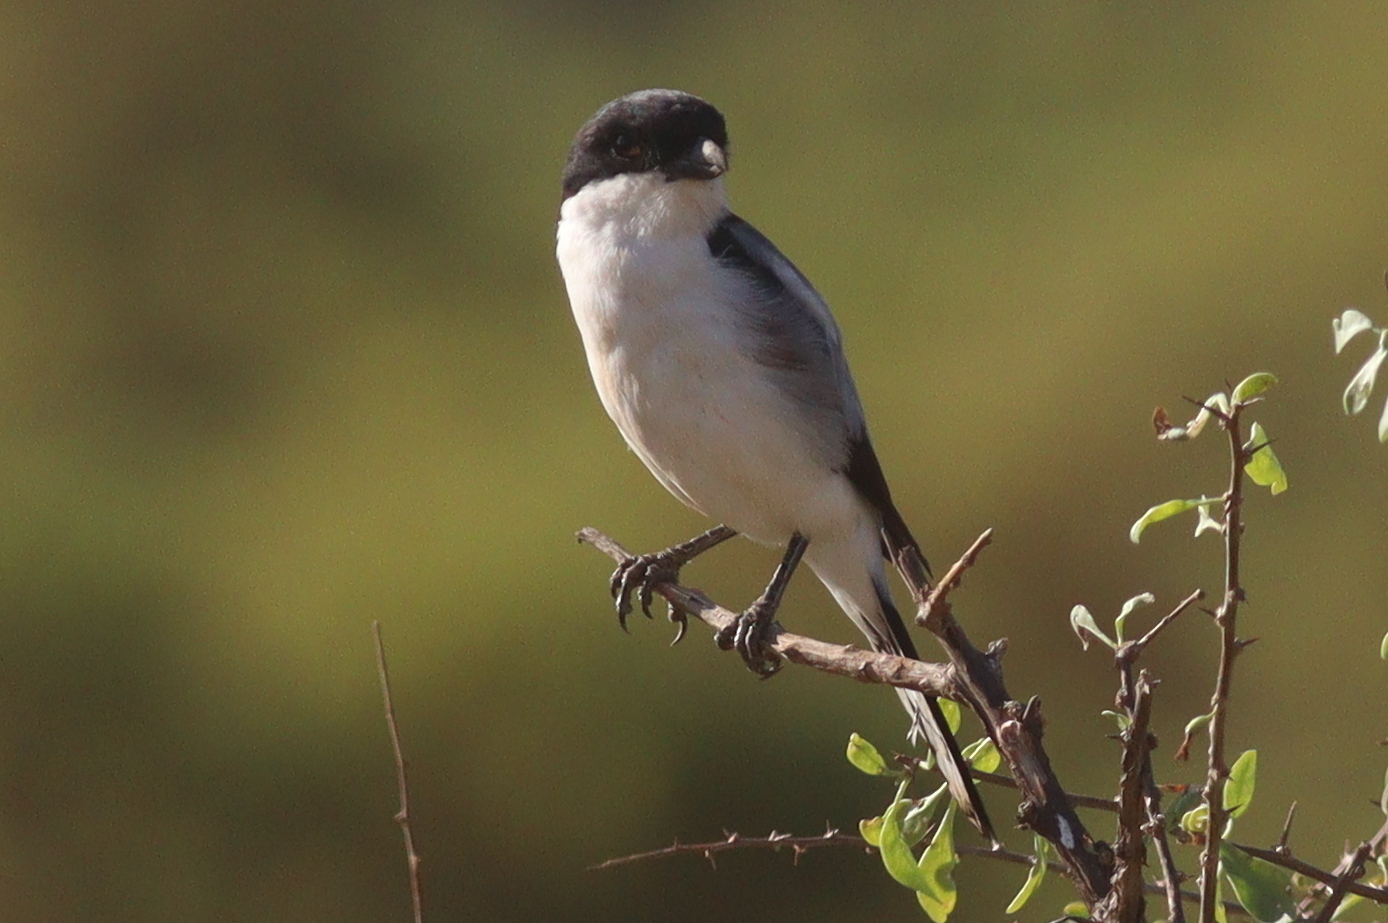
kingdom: Animalia
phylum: Chordata
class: Aves
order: Passeriformes
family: Laniidae
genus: Lanius
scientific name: Lanius dorsalis
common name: Taita fiscal
